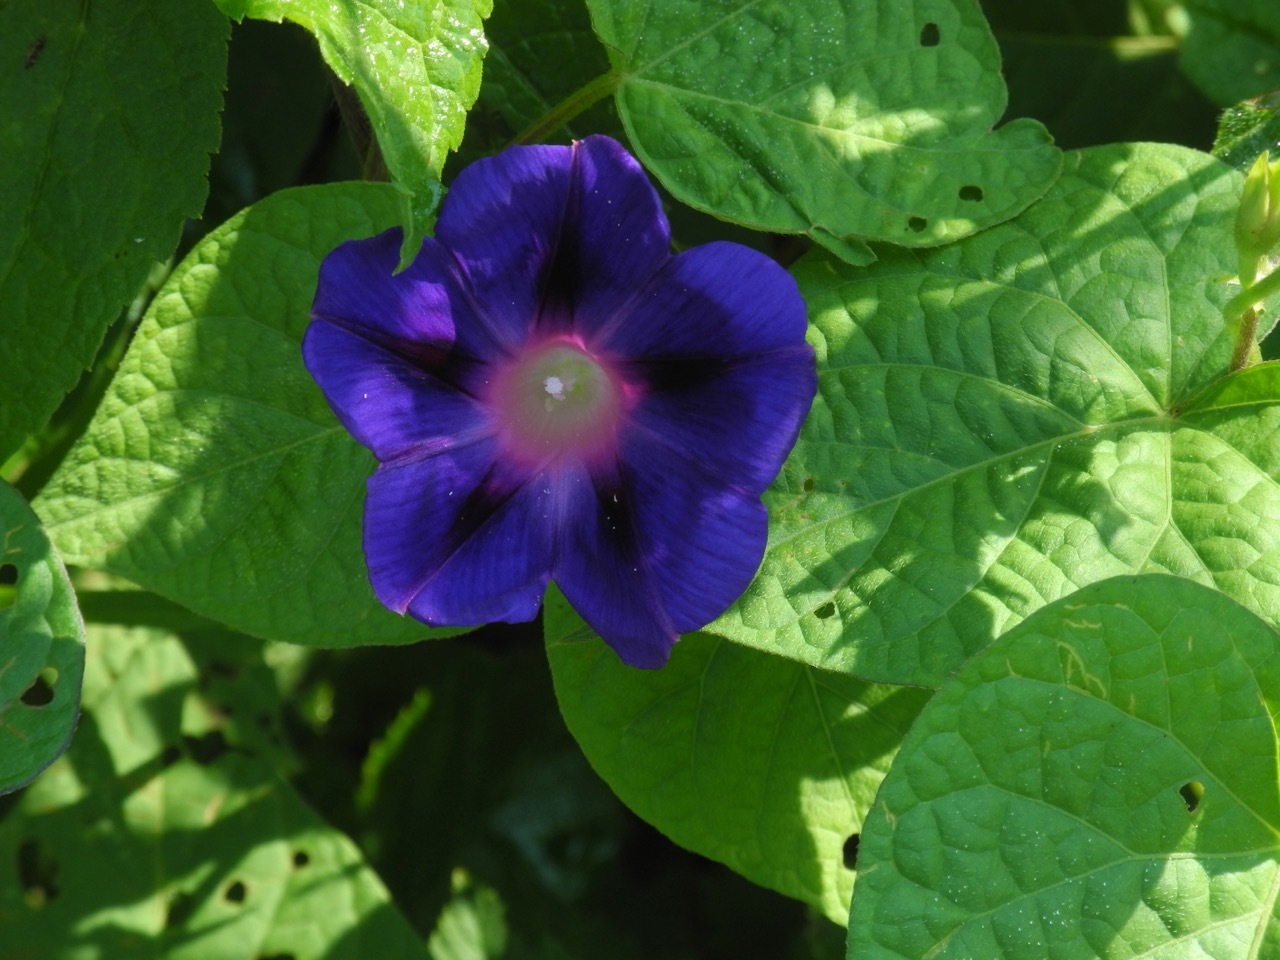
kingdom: Plantae
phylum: Tracheophyta
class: Magnoliopsida
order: Solanales
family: Convolvulaceae
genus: Ipomoea
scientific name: Ipomoea purpurea
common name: Common morning-glory
